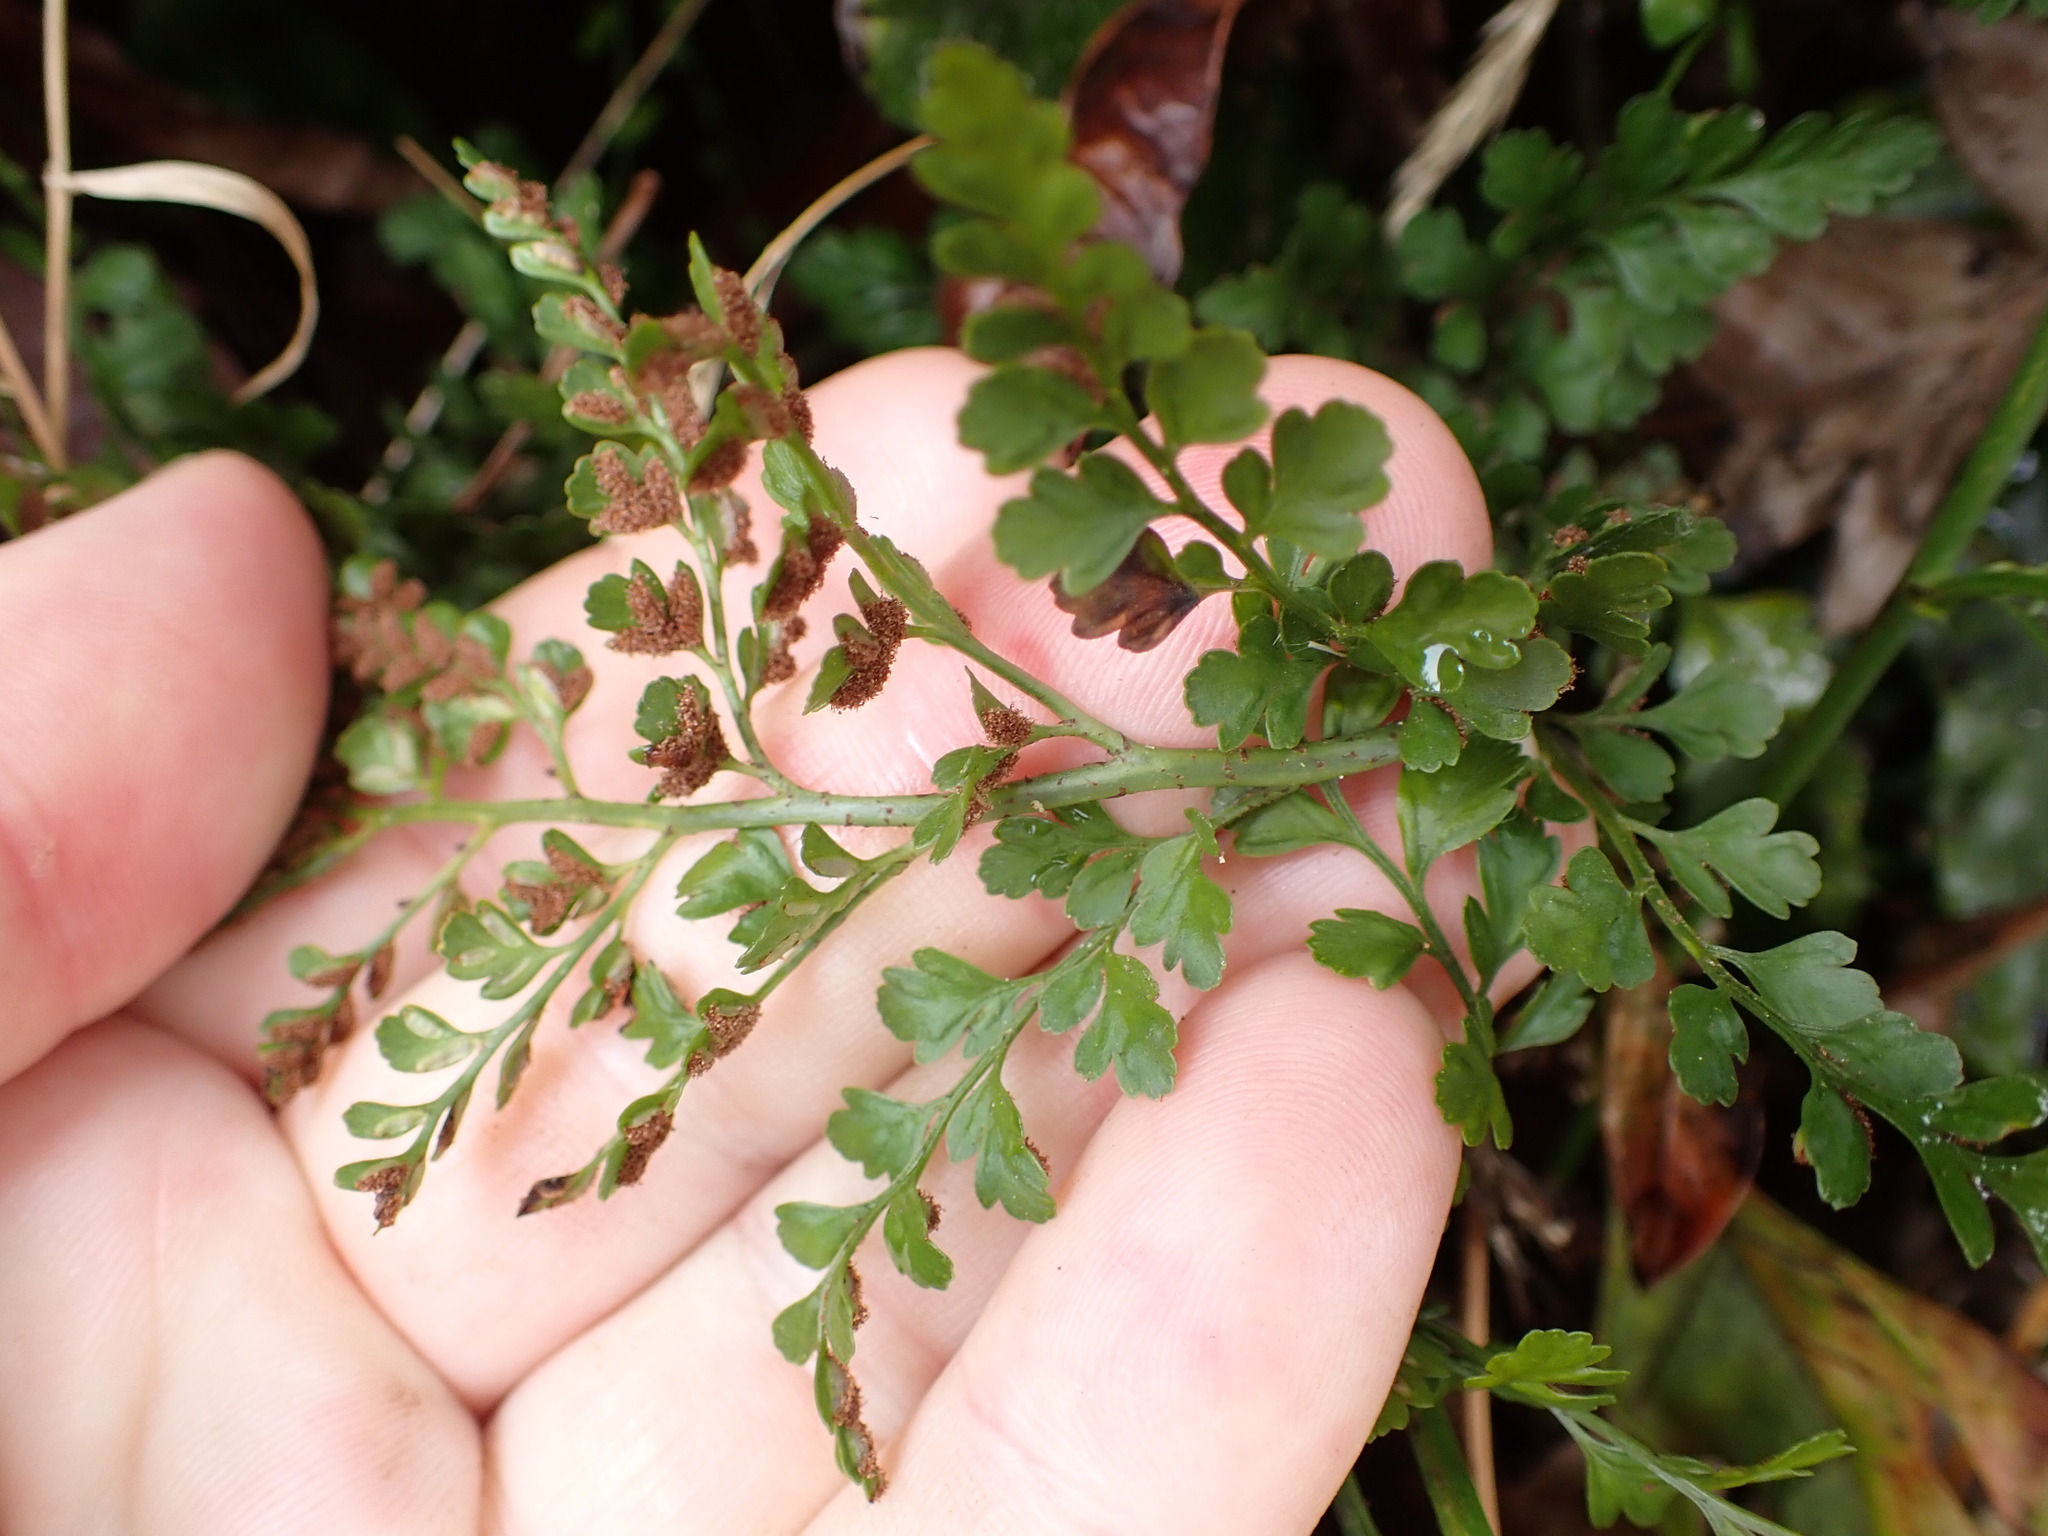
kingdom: Plantae
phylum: Tracheophyta
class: Polypodiopsida
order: Polypodiales
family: Aspleniaceae
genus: Asplenium
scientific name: Asplenium hookerianum
